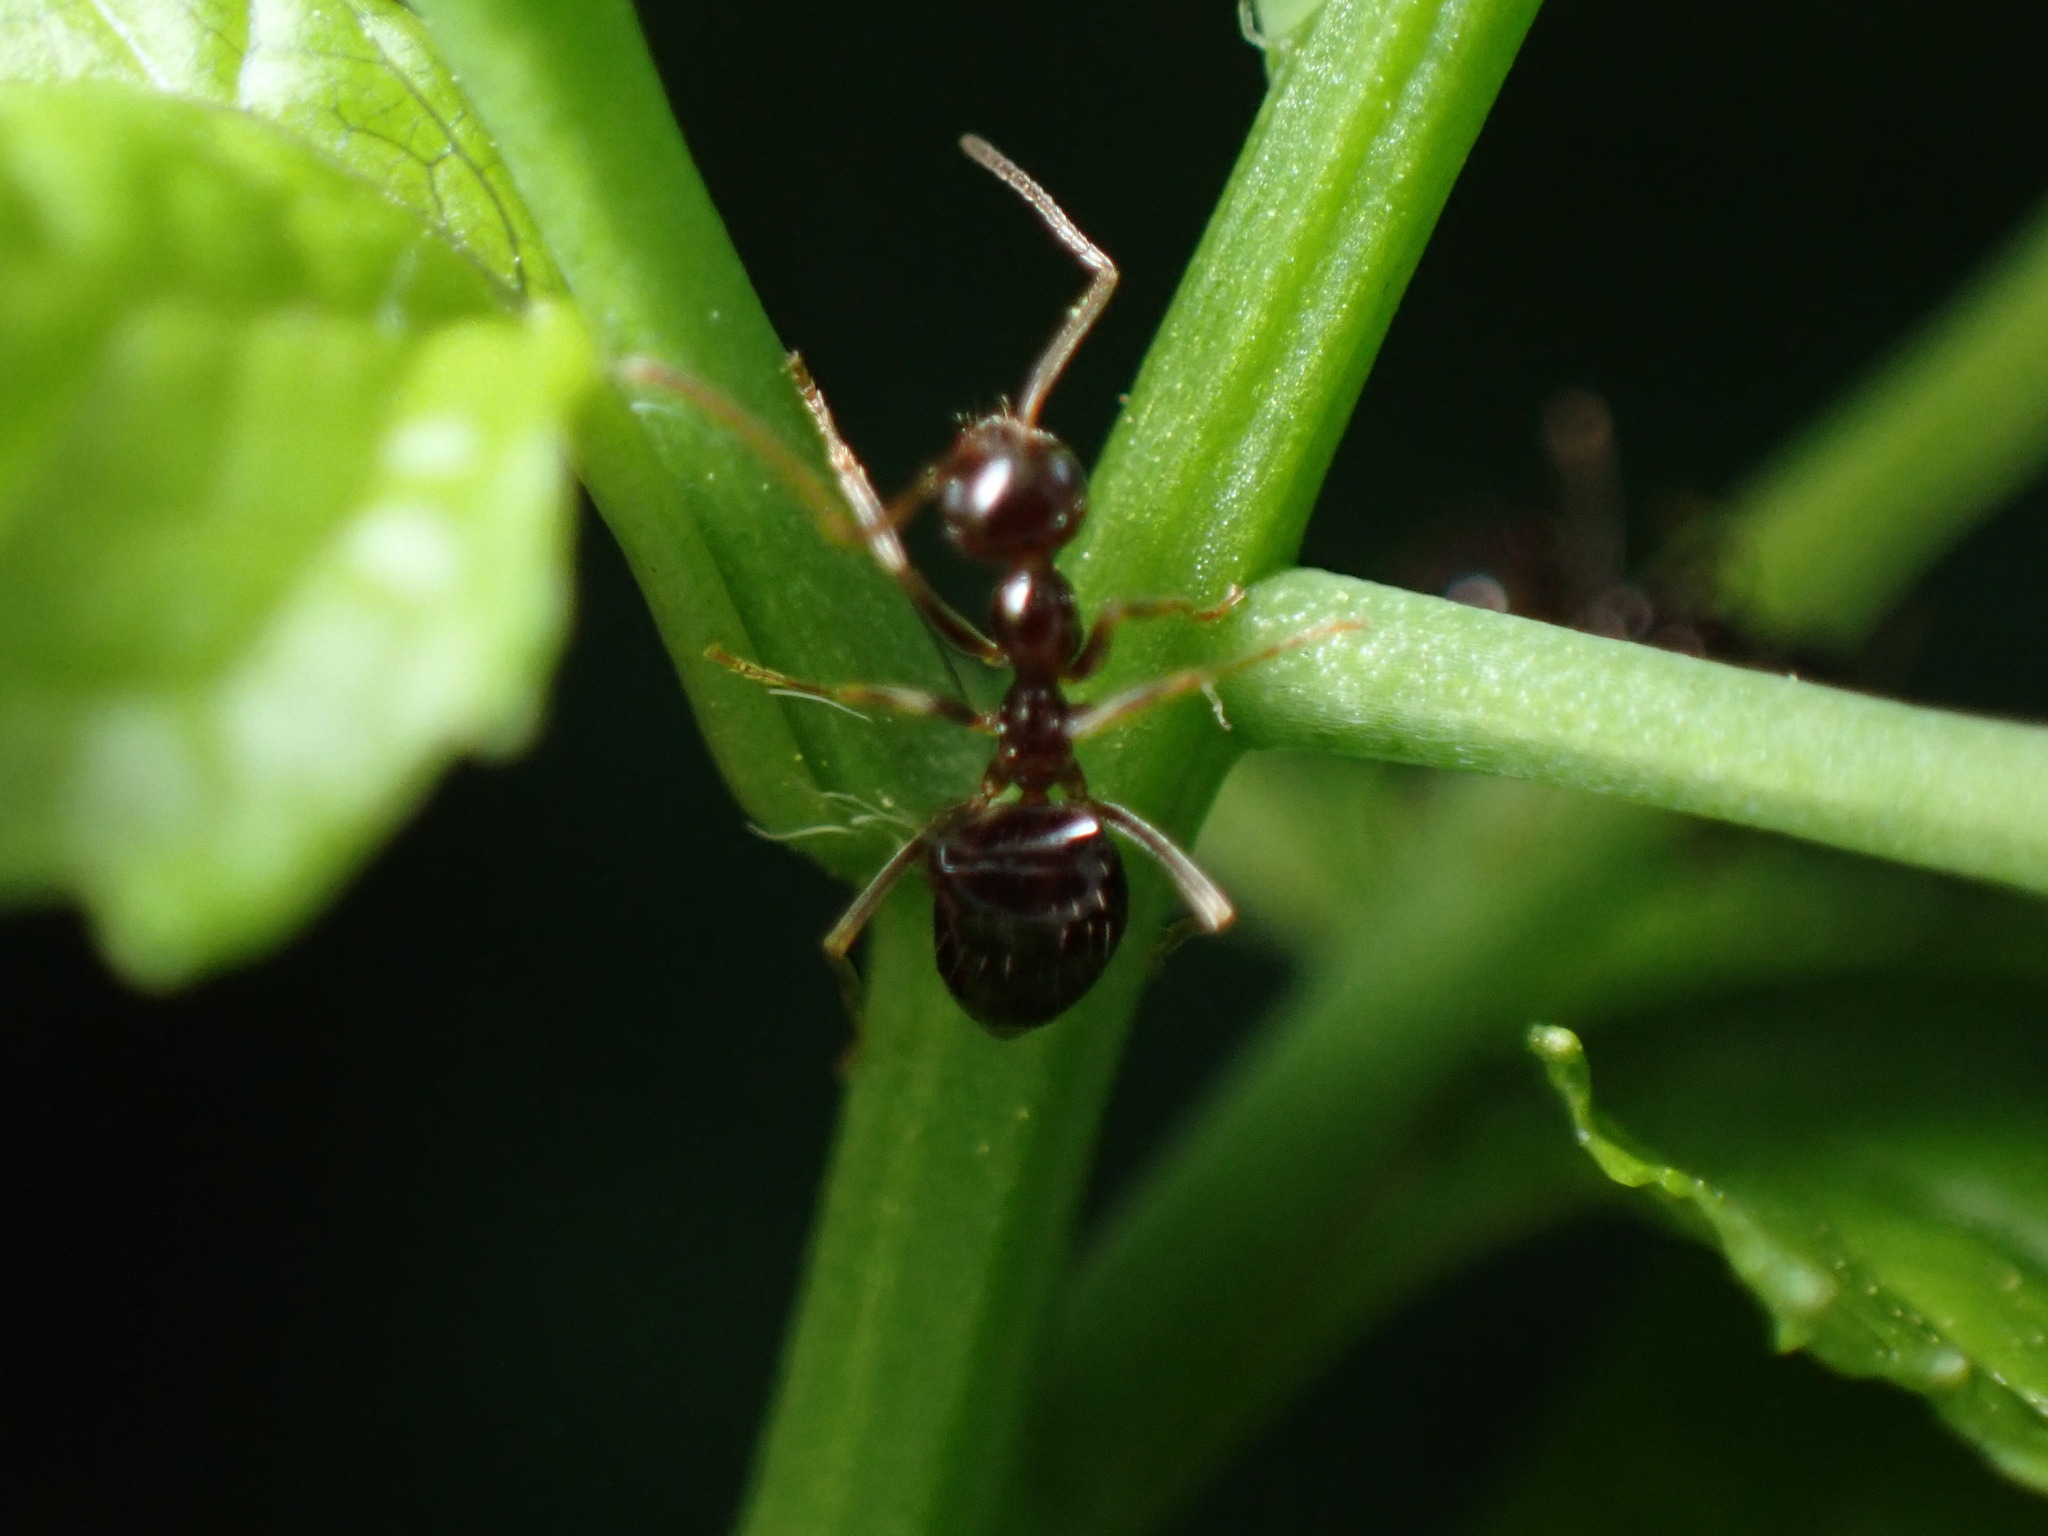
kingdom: Animalia
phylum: Arthropoda
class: Insecta
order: Hymenoptera
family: Formicidae
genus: Prenolepis
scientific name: Prenolepis imparis
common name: Small honey ant
